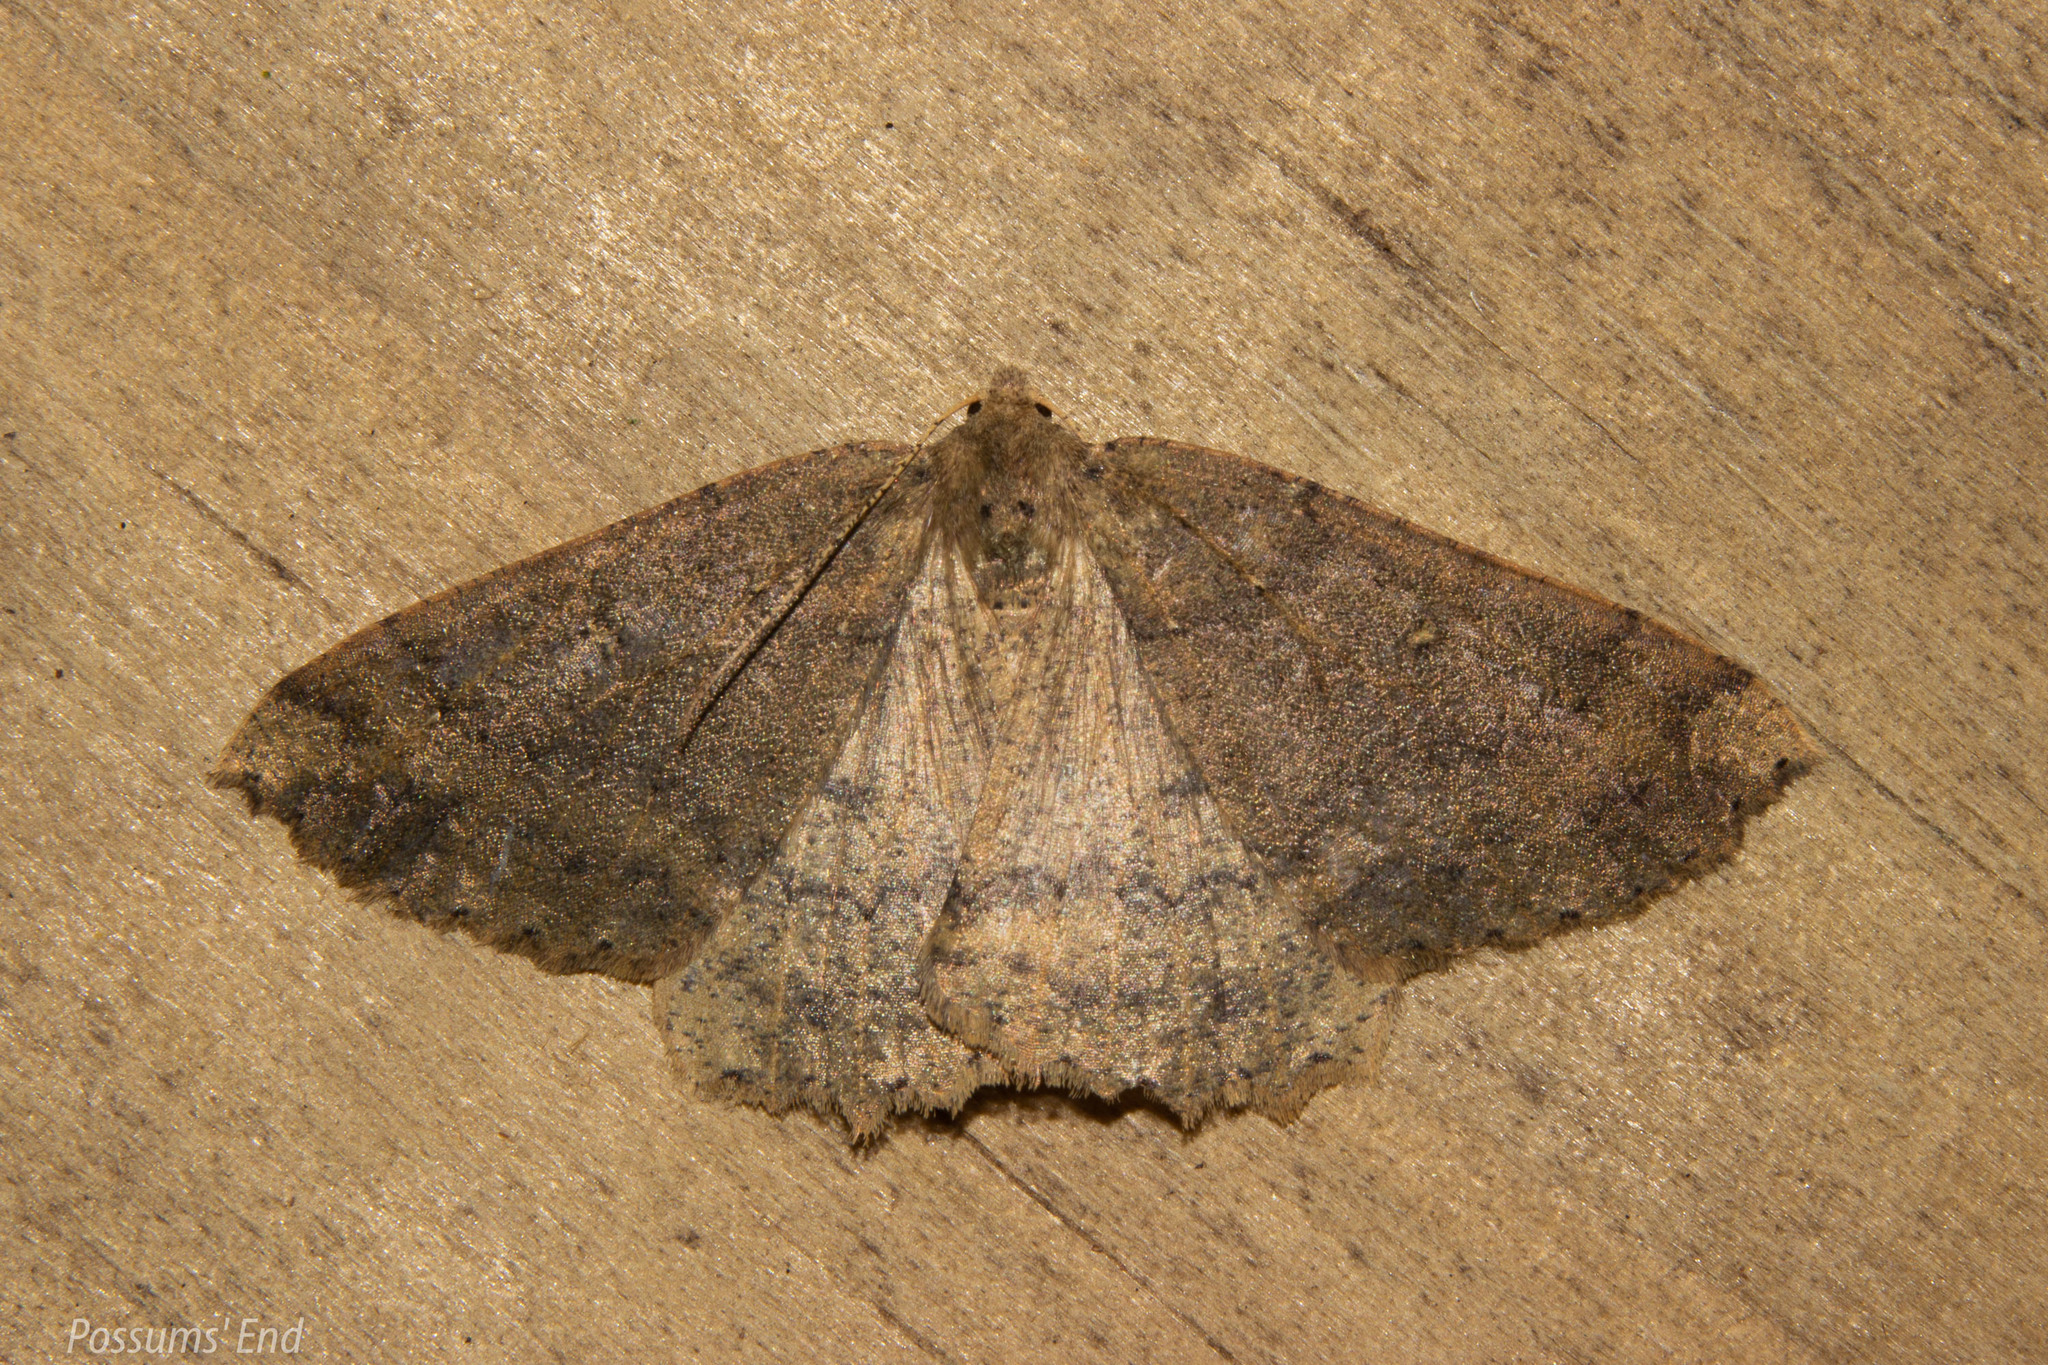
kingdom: Animalia
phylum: Arthropoda
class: Insecta
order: Lepidoptera
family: Geometridae
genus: Cleora
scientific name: Cleora scriptaria
